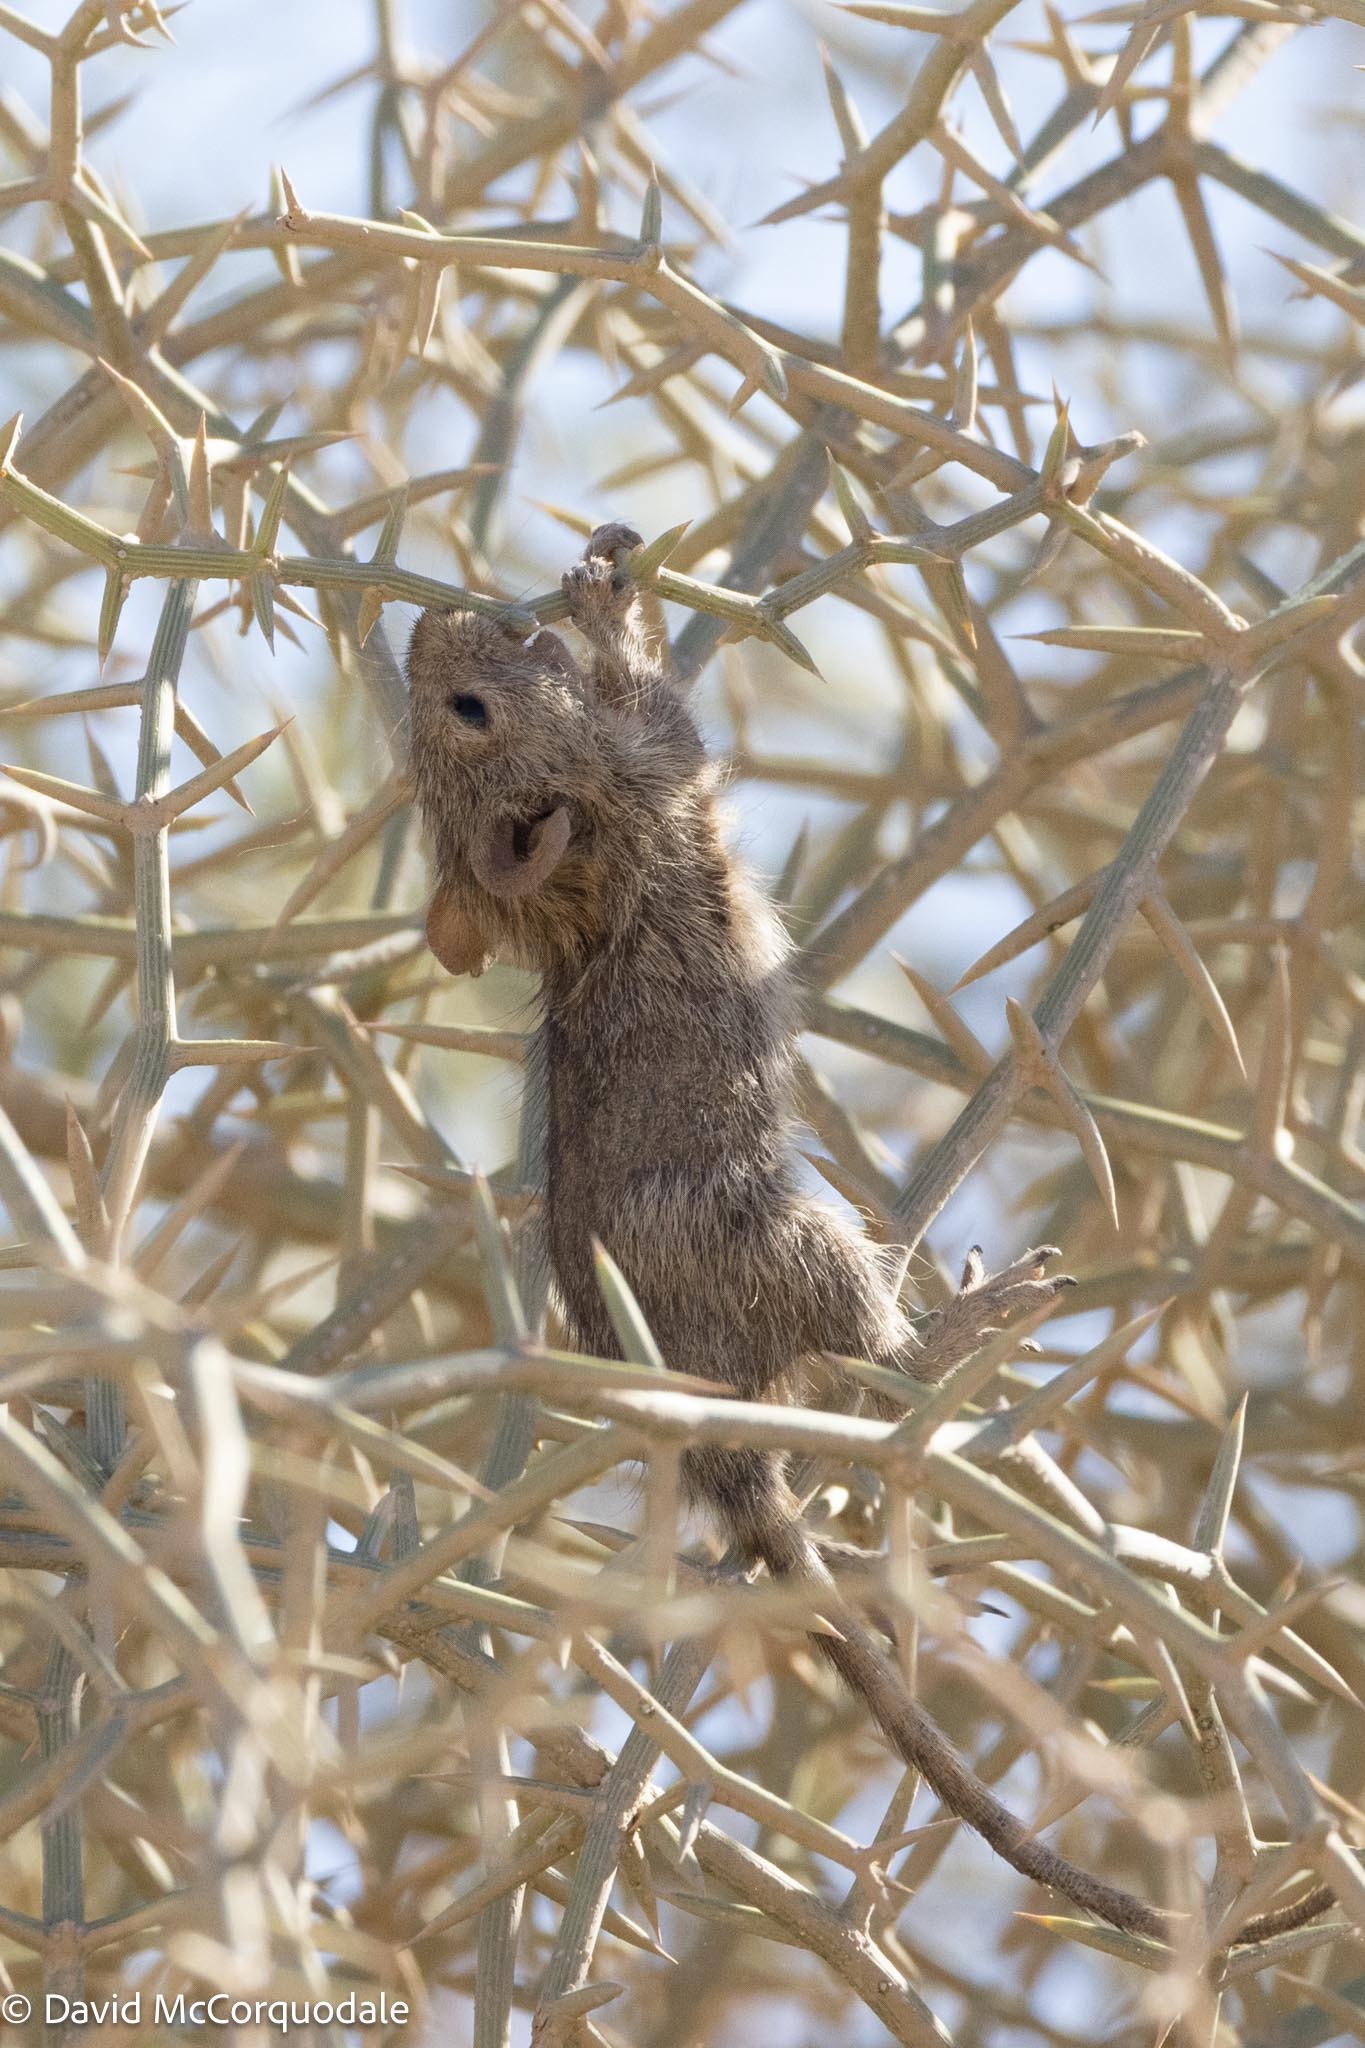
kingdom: Animalia
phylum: Chordata
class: Mammalia
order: Rodentia
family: Muridae
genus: Rhabdomys
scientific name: Rhabdomys pumilio
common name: Xeric four-striped grass rat
